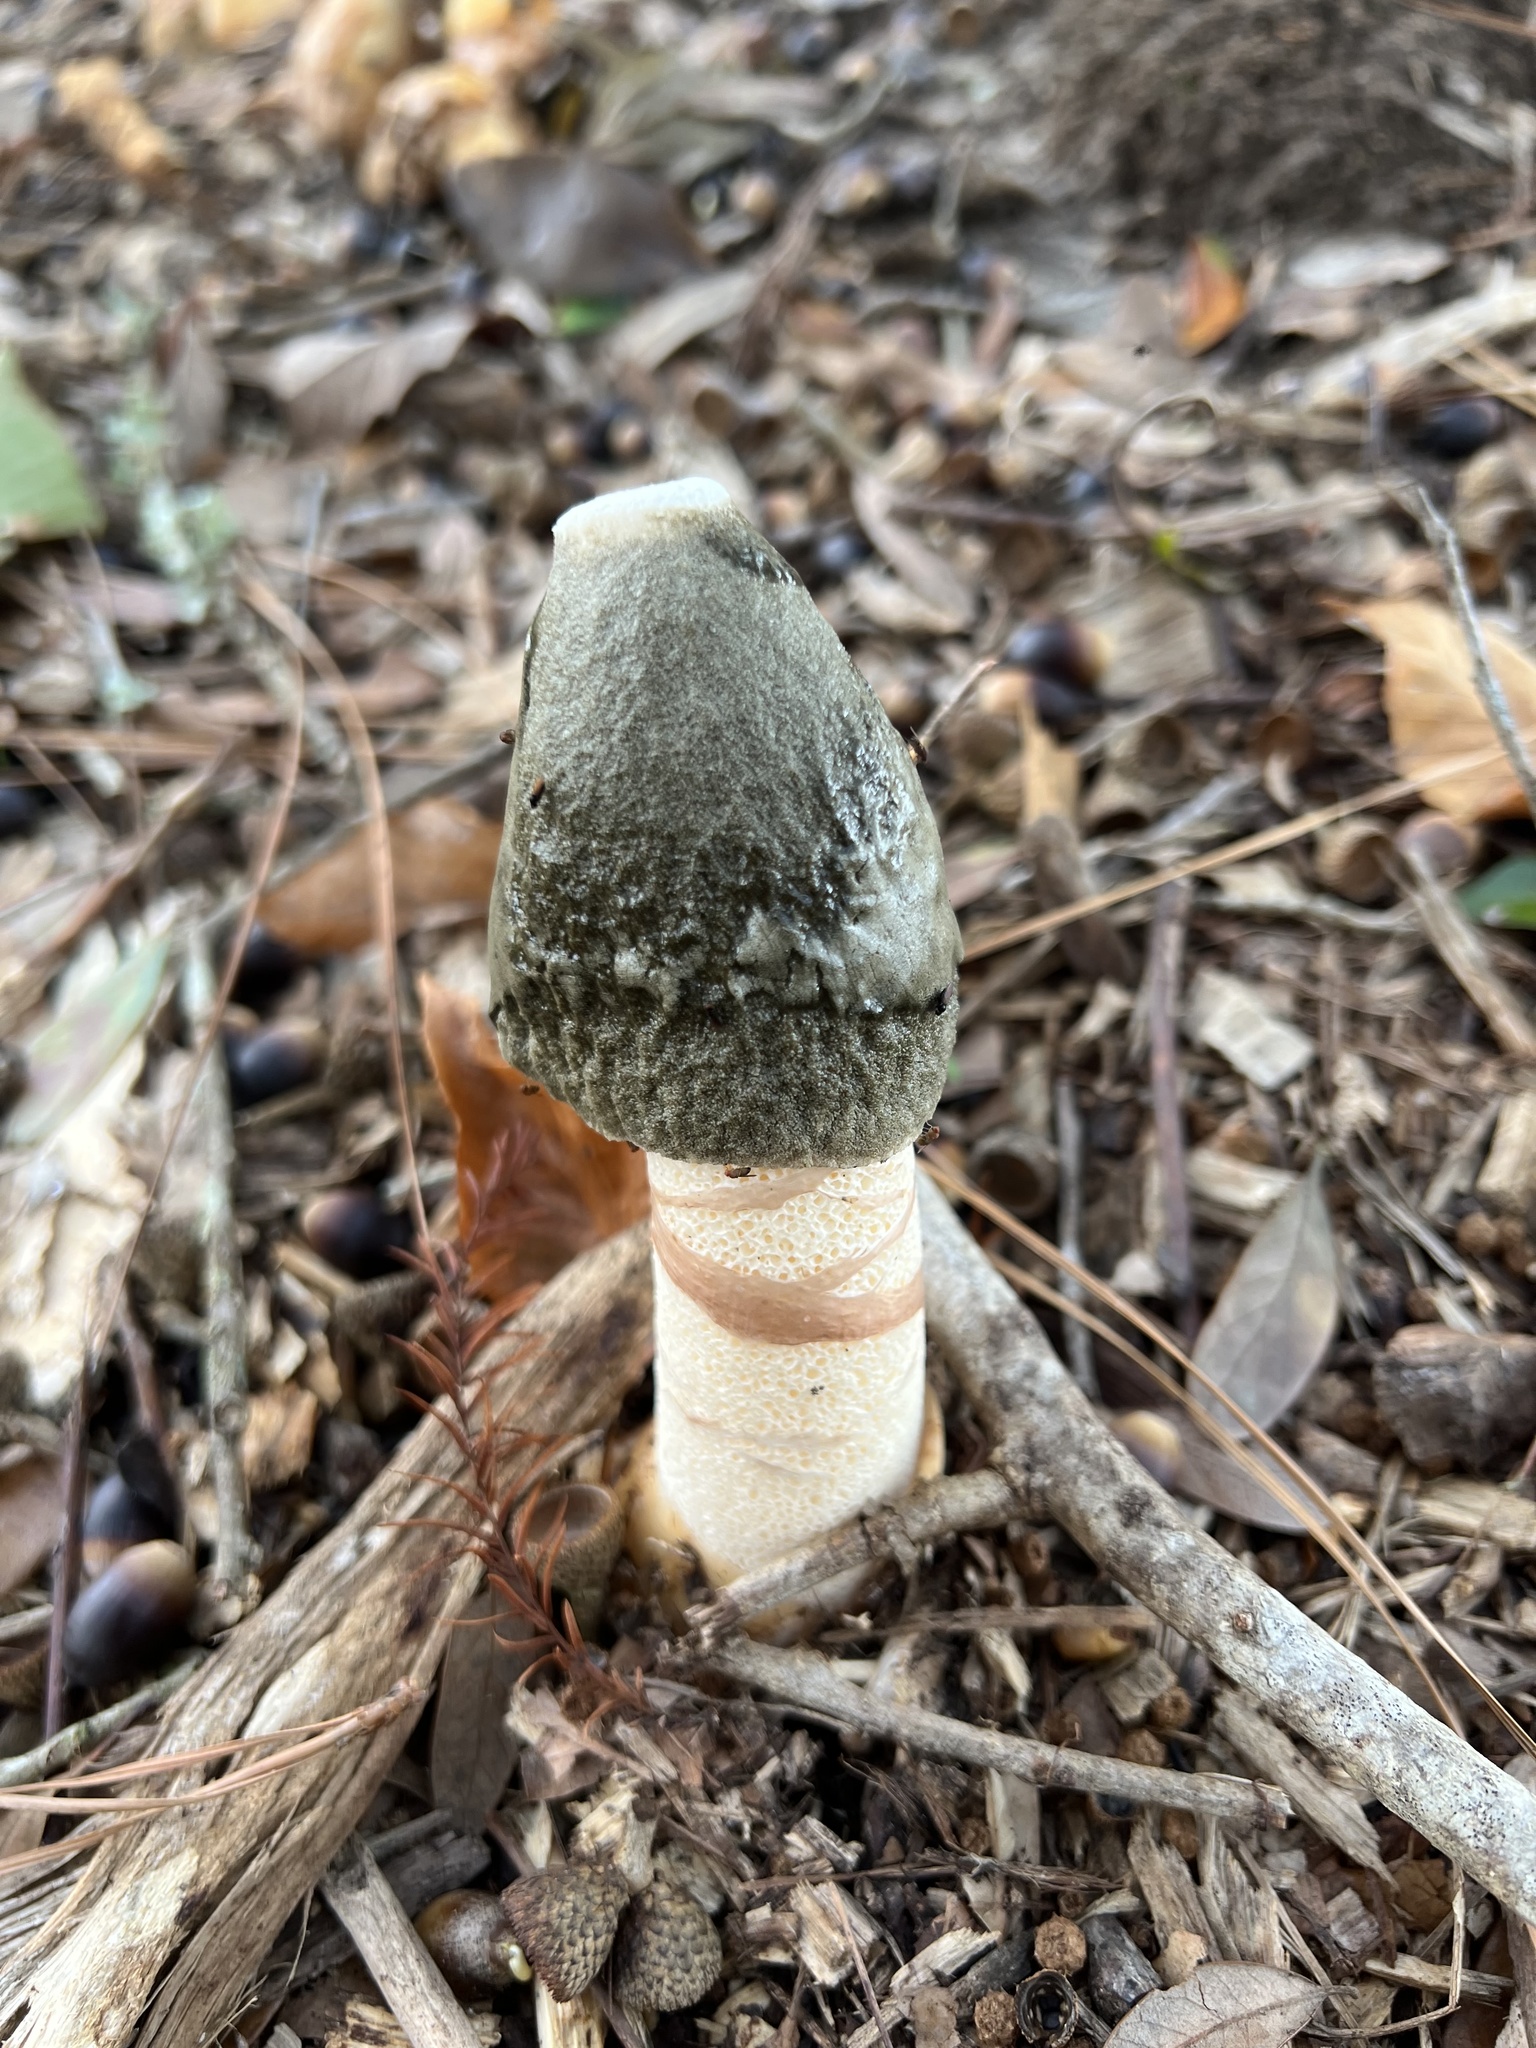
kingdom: Fungi
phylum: Basidiomycota
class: Agaricomycetes
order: Phallales
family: Phallaceae
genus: Phallus
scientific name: Phallus ravenelii
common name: Ravenel's stinkhorn
